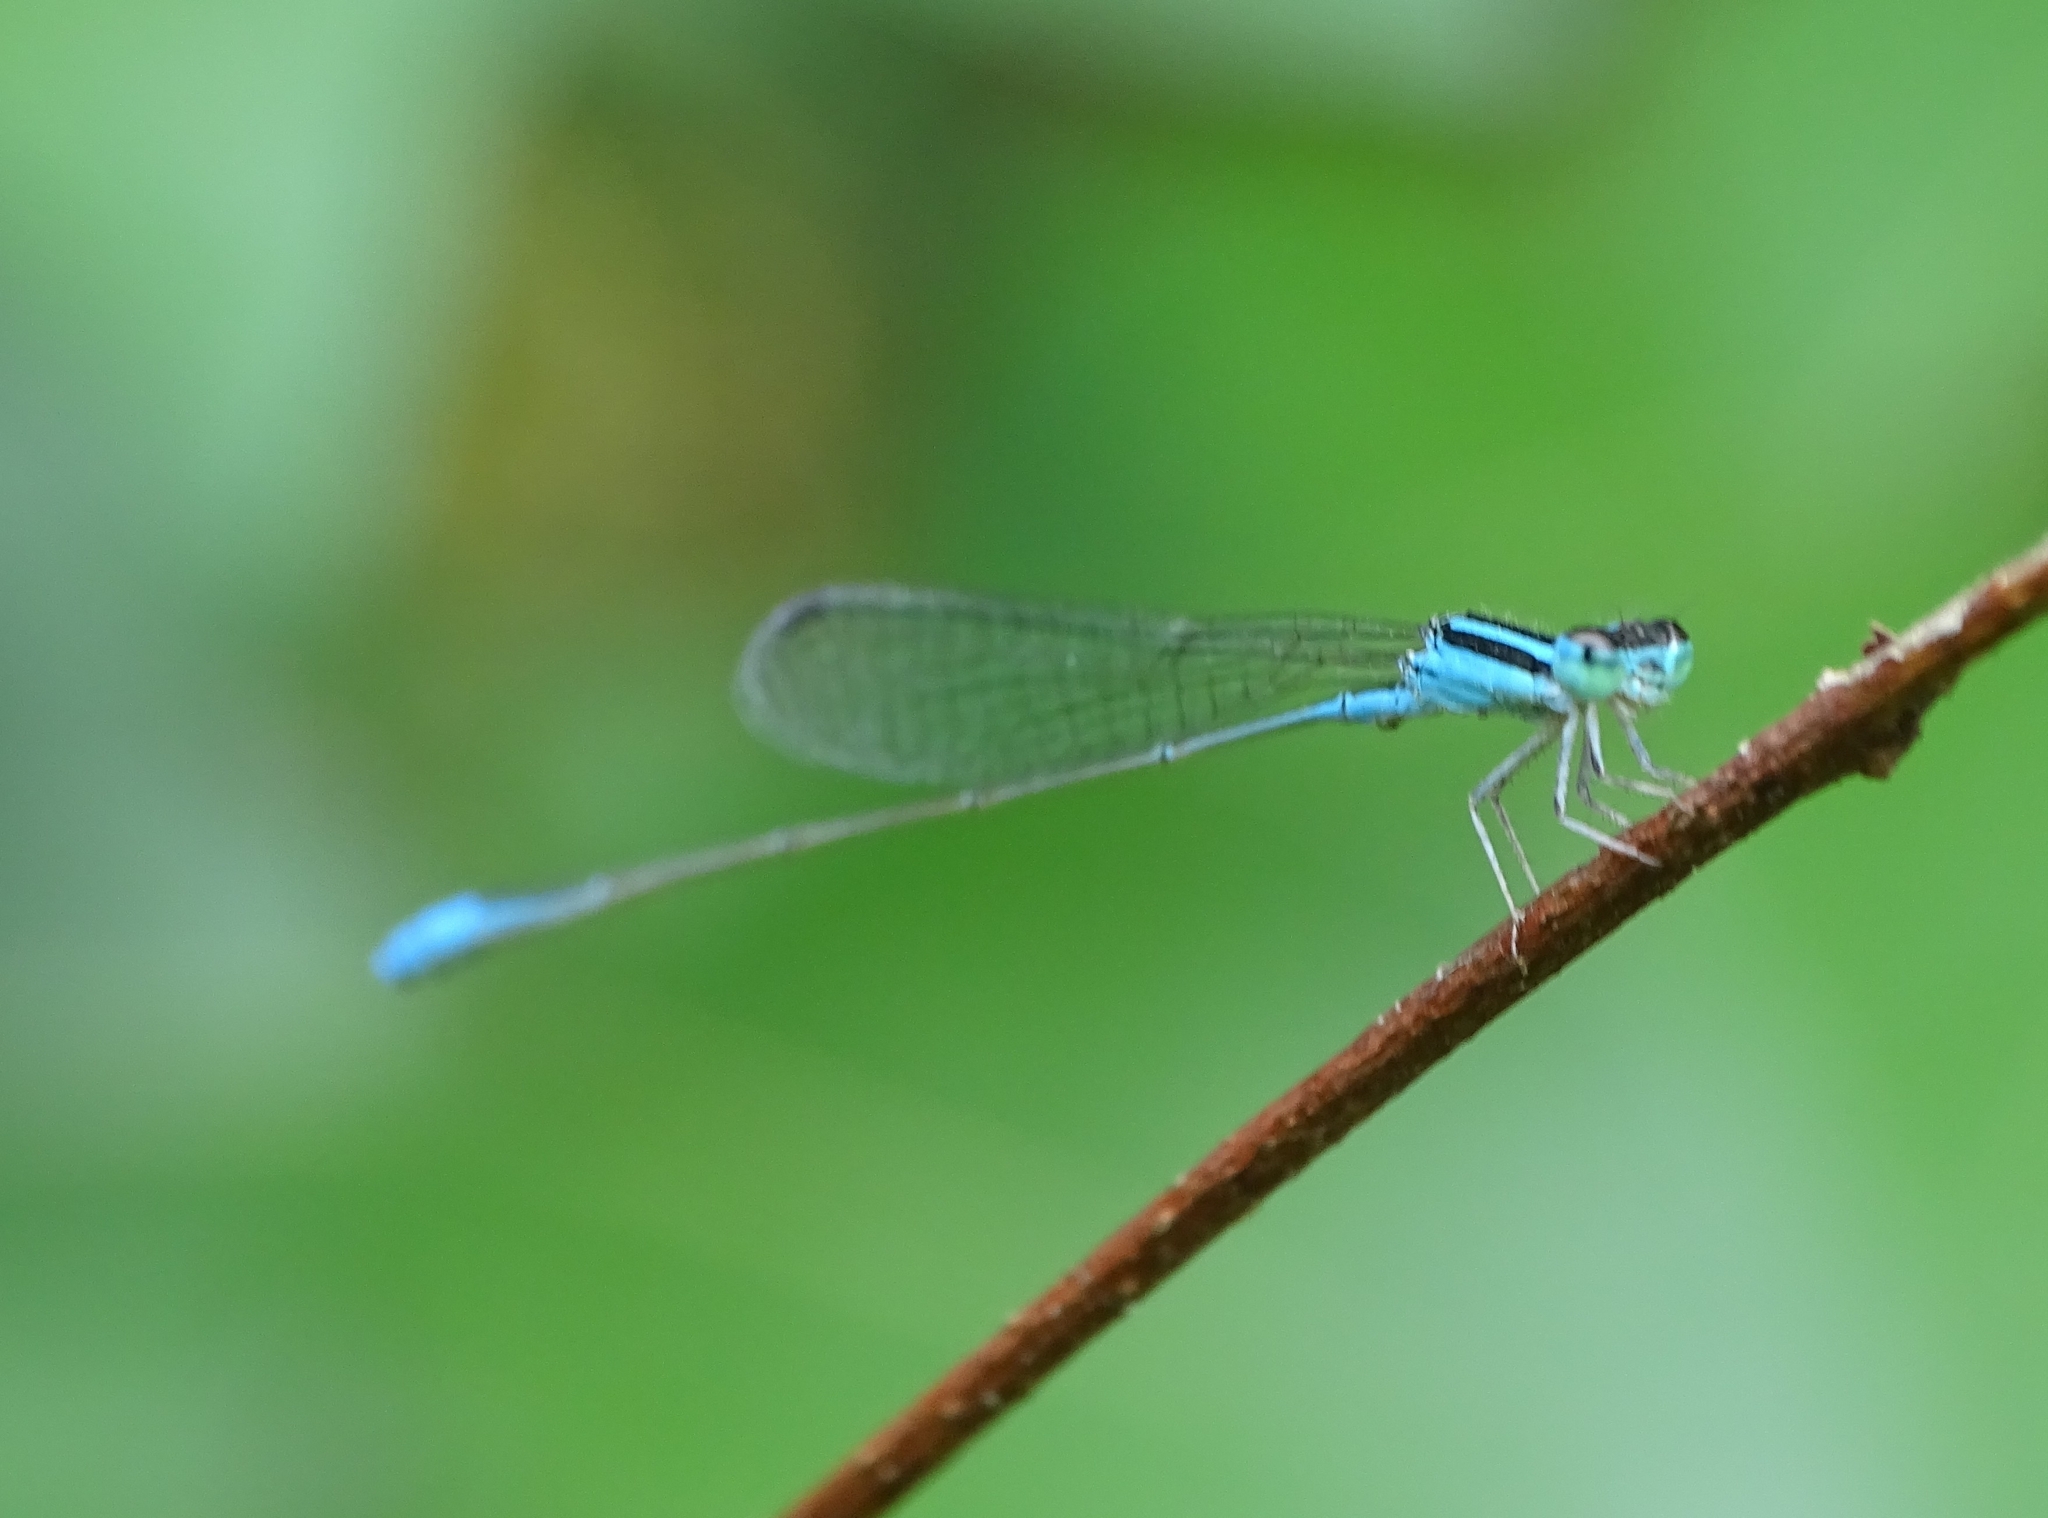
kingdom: Animalia
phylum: Arthropoda
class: Insecta
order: Odonata
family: Coenagrionidae
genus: Aciagrion
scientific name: Aciagrion occidentale
